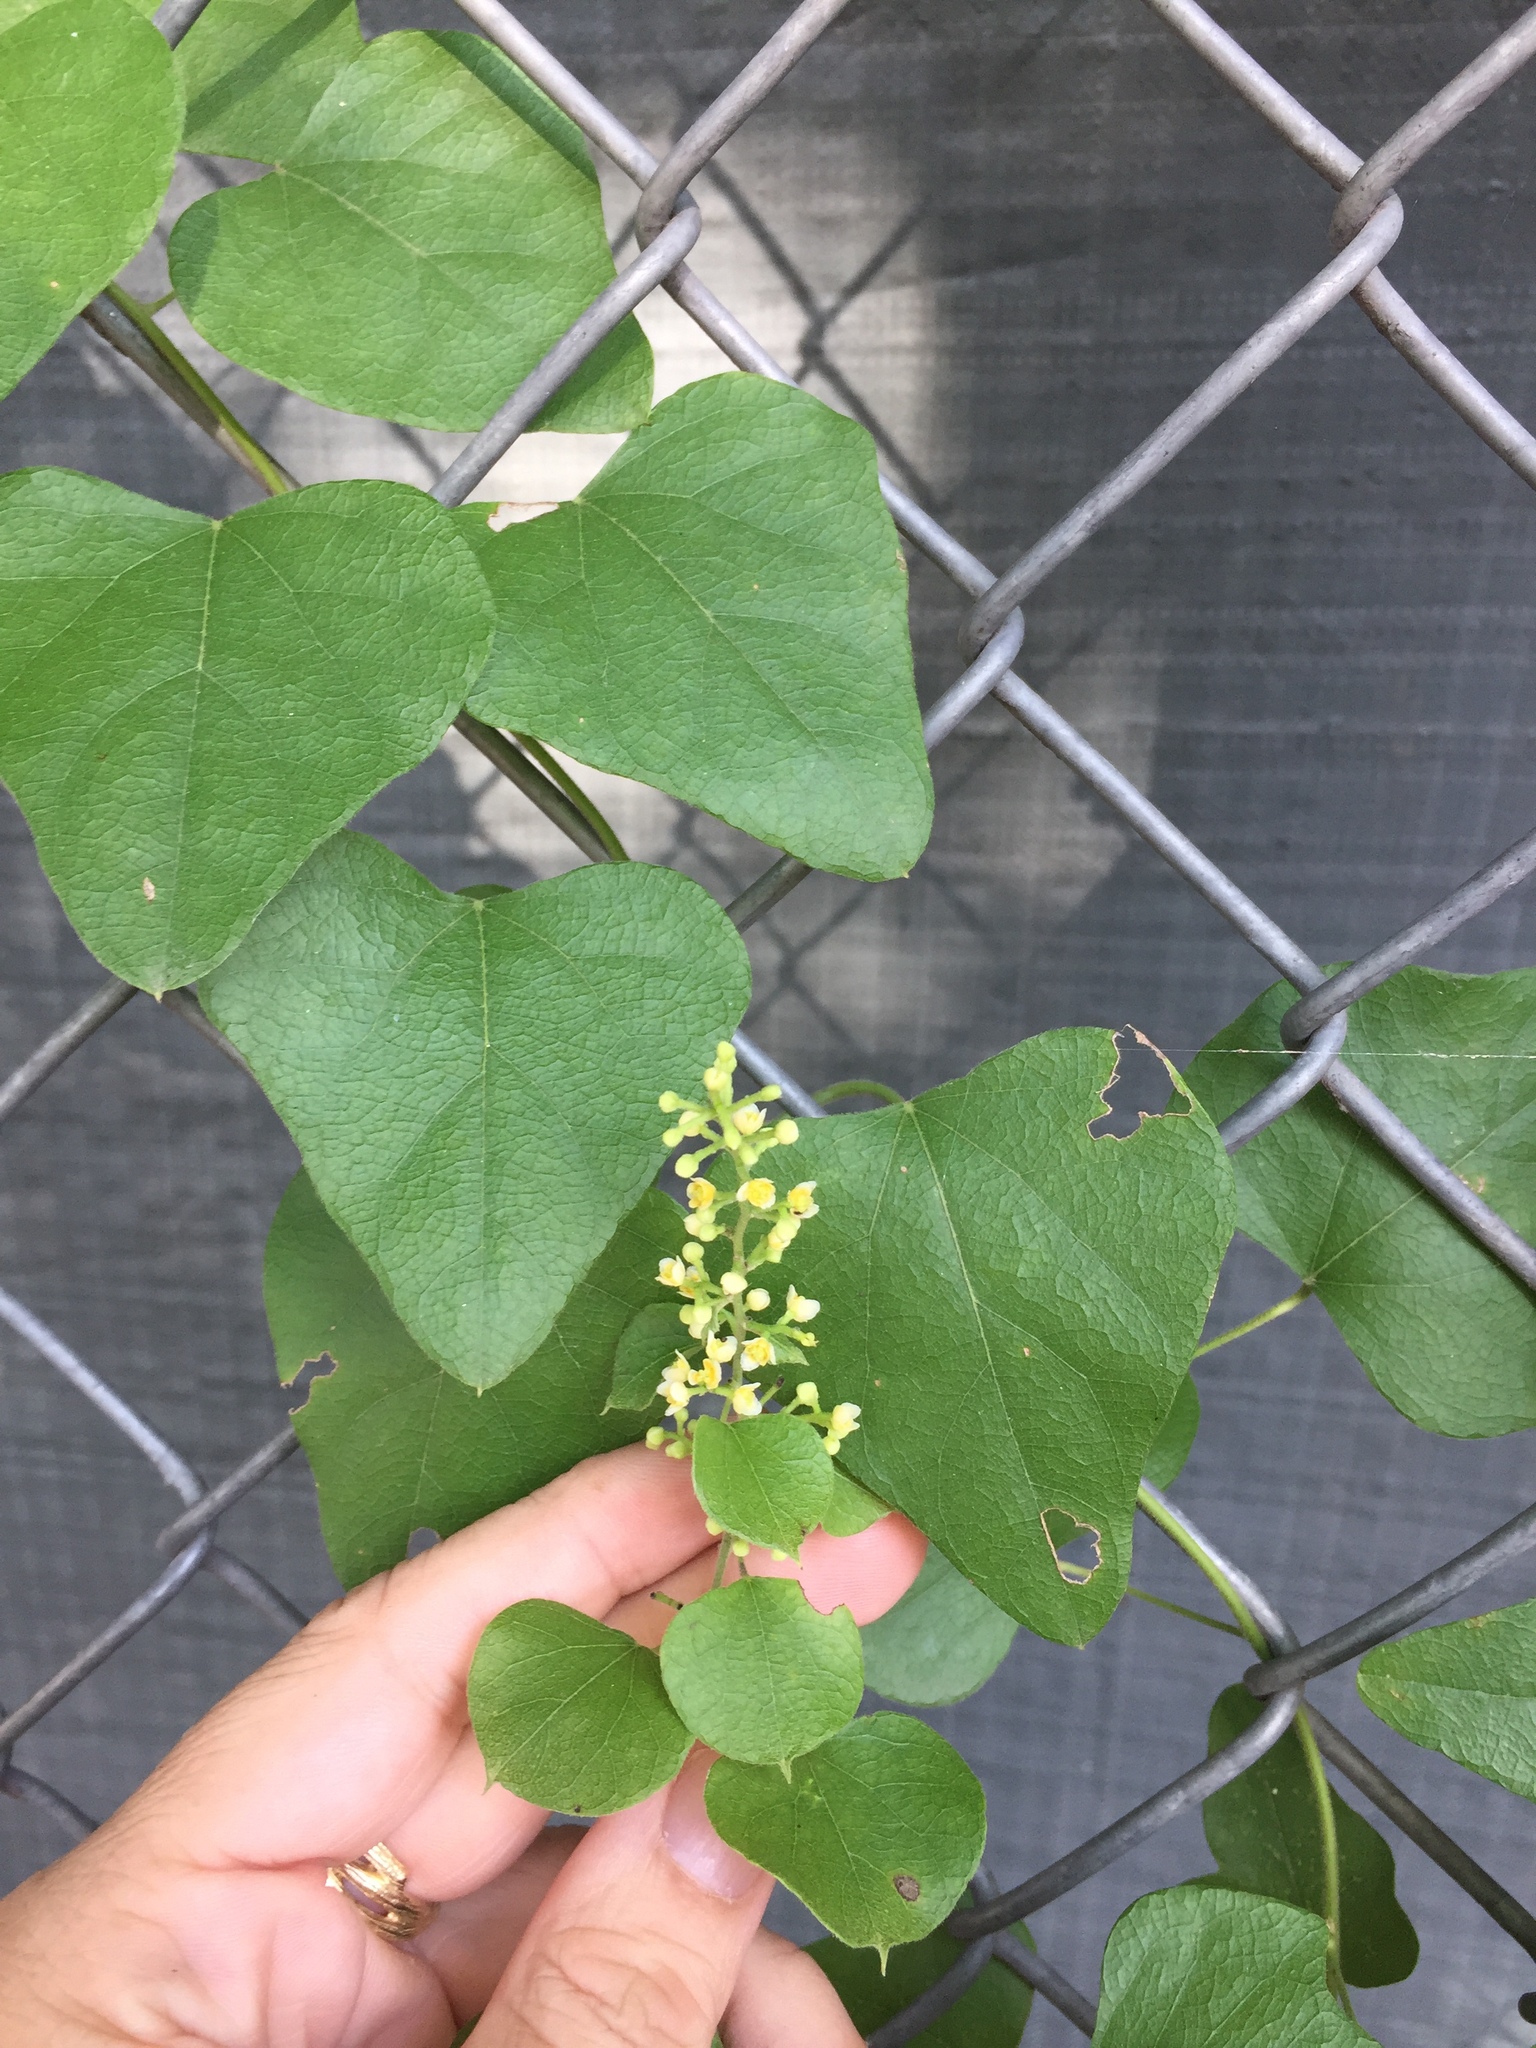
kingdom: Plantae
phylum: Tracheophyta
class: Magnoliopsida
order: Ranunculales
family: Menispermaceae
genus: Cocculus
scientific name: Cocculus carolinus
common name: Carolina moonseed
